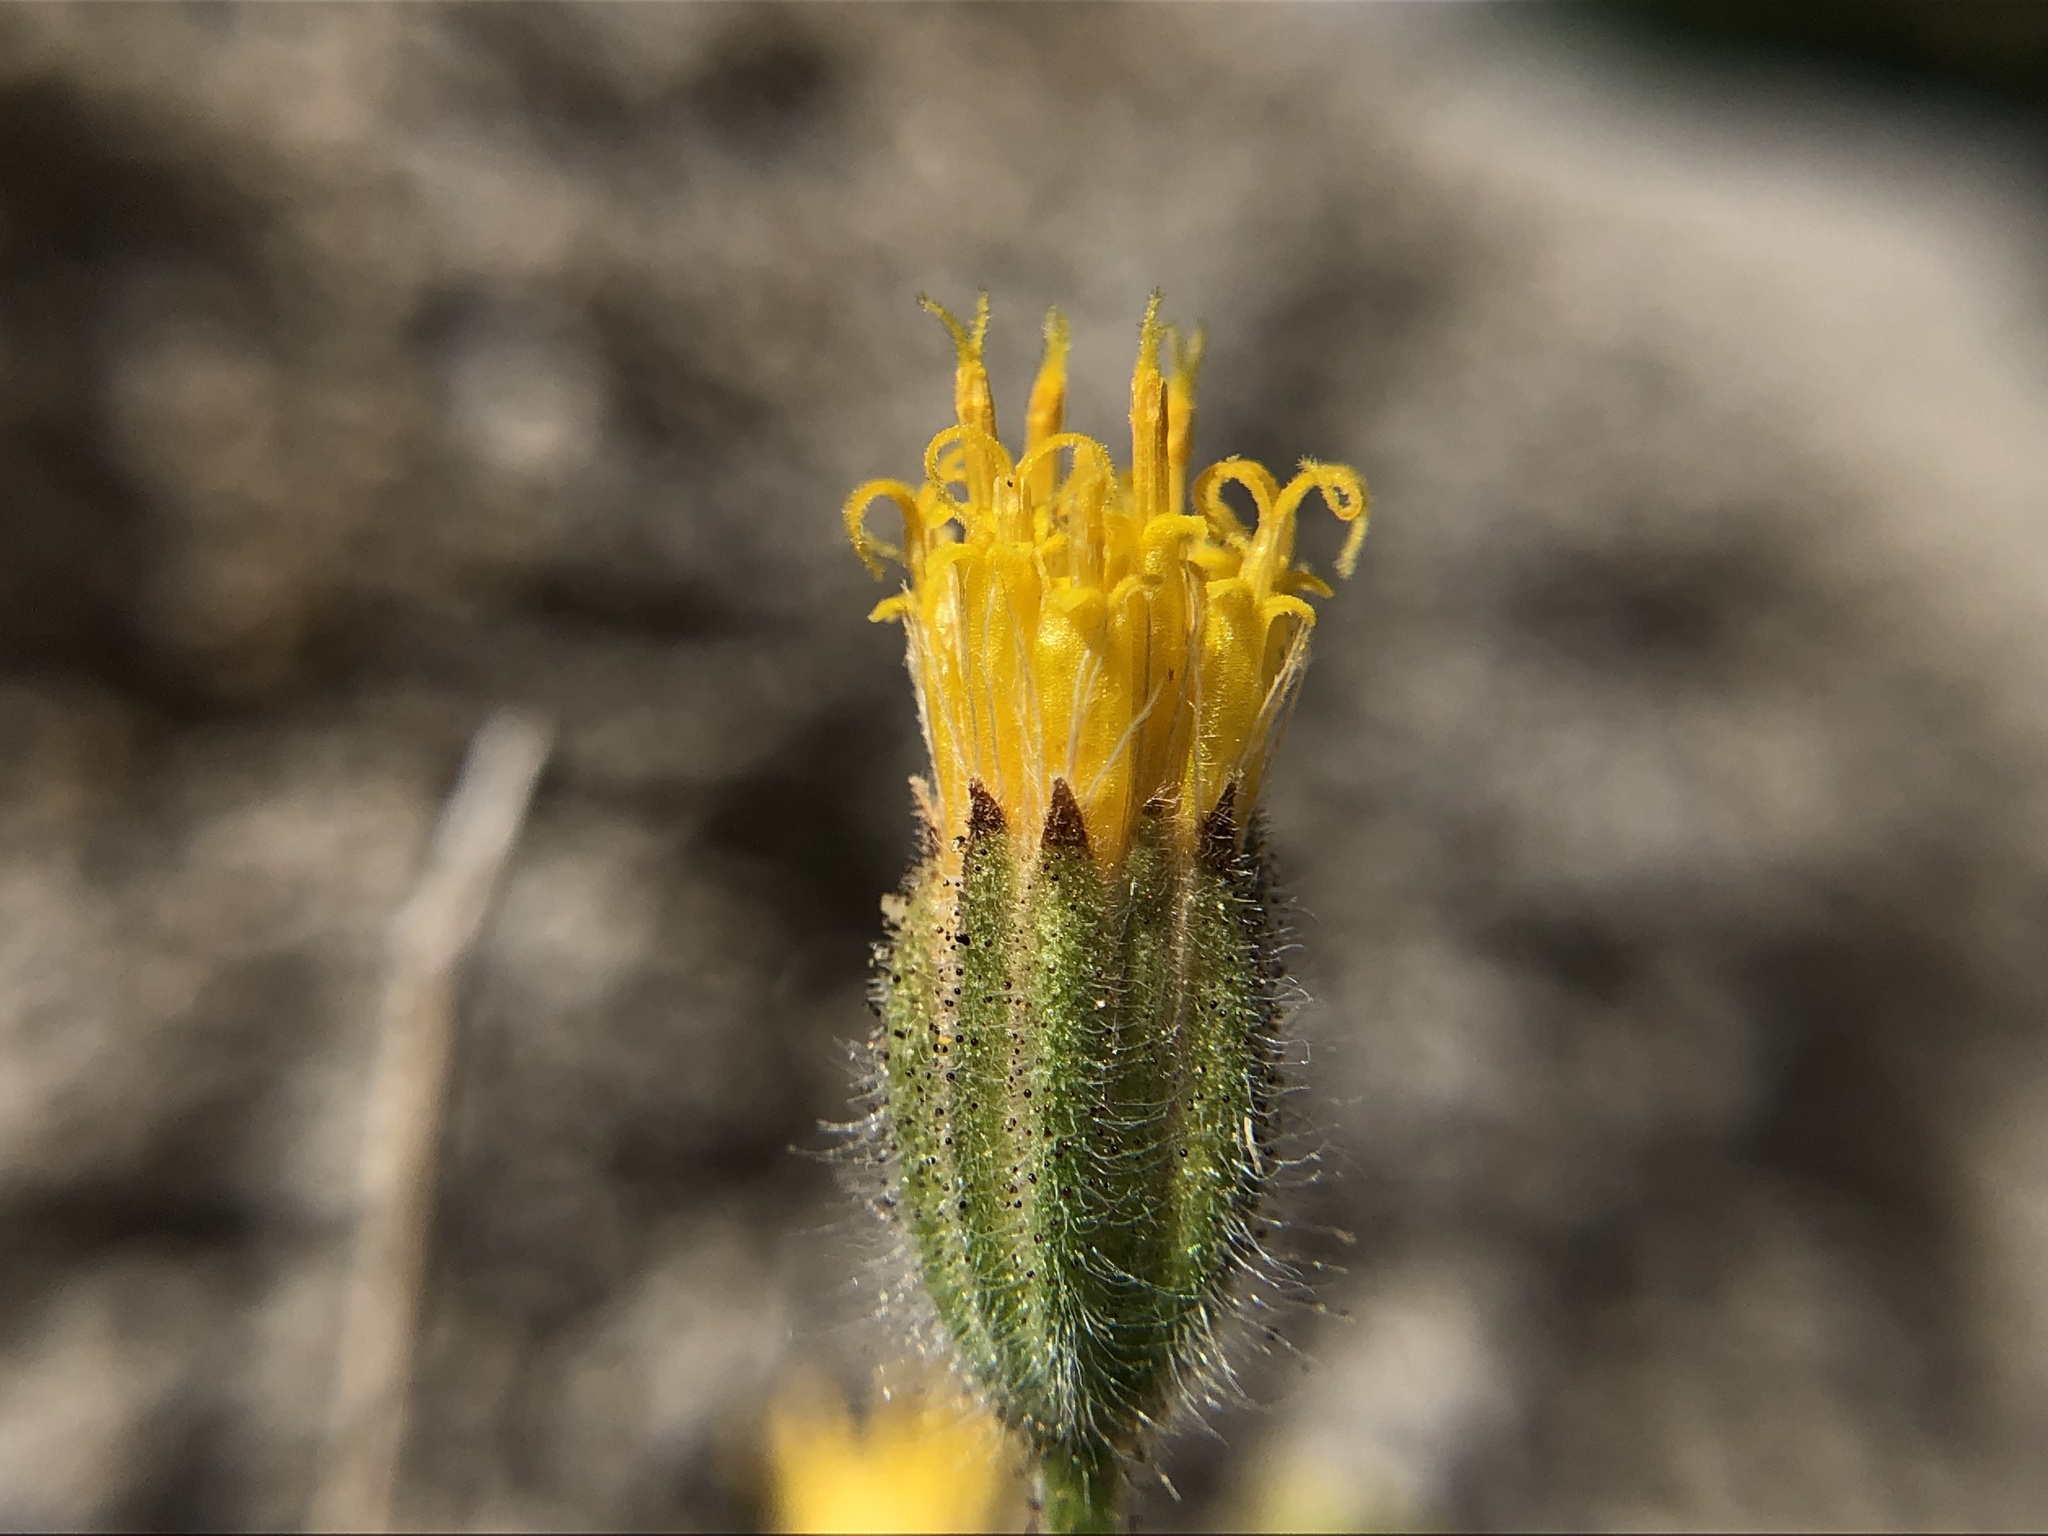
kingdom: Plantae
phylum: Tracheophyta
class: Magnoliopsida
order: Asterales
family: Asteraceae
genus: Carlquistia
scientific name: Carlquistia muirii
